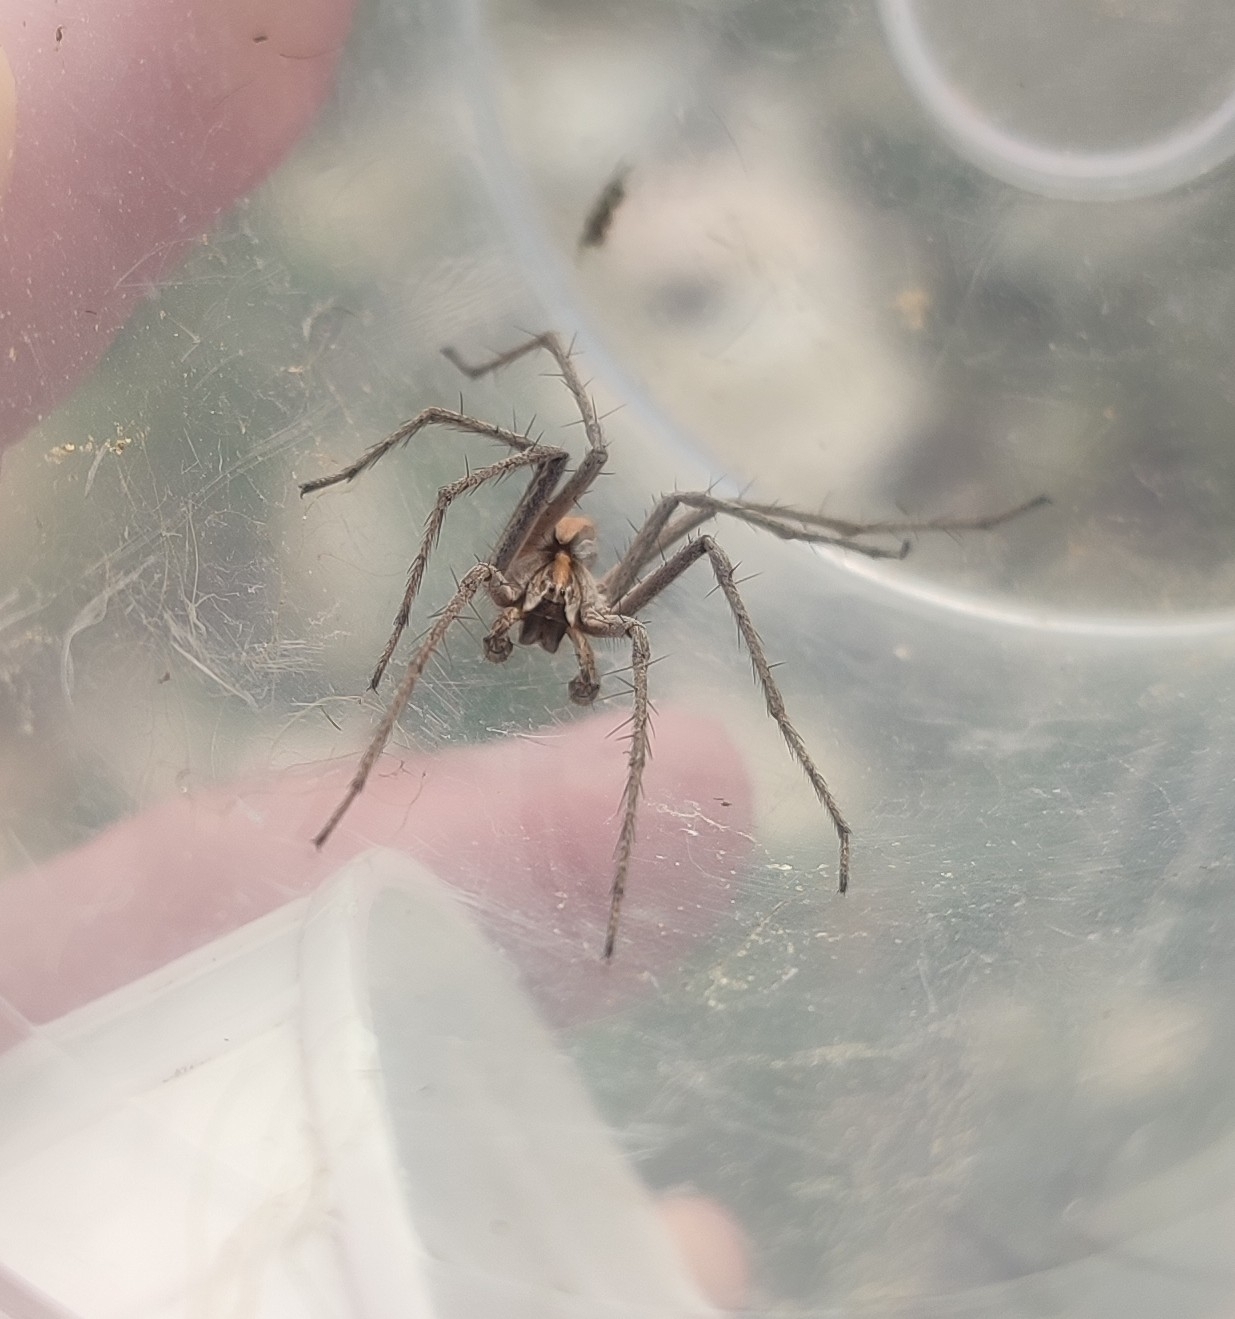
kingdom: Animalia
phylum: Arthropoda
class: Arachnida
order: Araneae
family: Pisauridae
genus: Pisaura
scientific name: Pisaura
